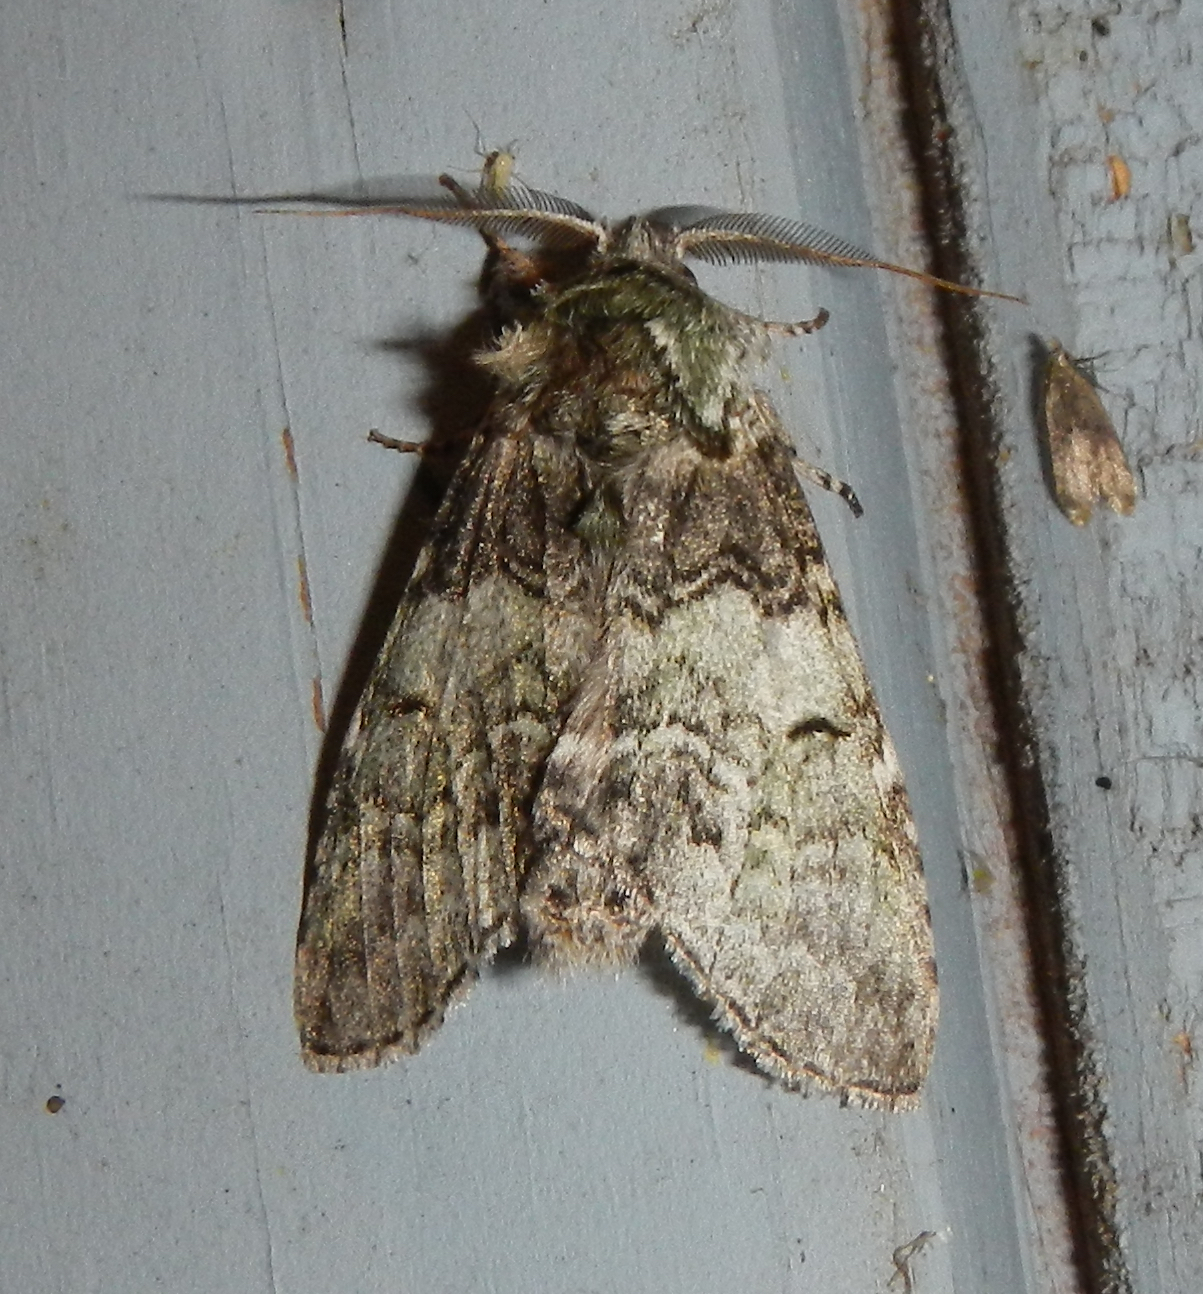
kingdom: Animalia
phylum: Arthropoda
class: Insecta
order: Lepidoptera
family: Notodontidae
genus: Macrurocampa
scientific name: Macrurocampa marthesia
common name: Mottled prominent
